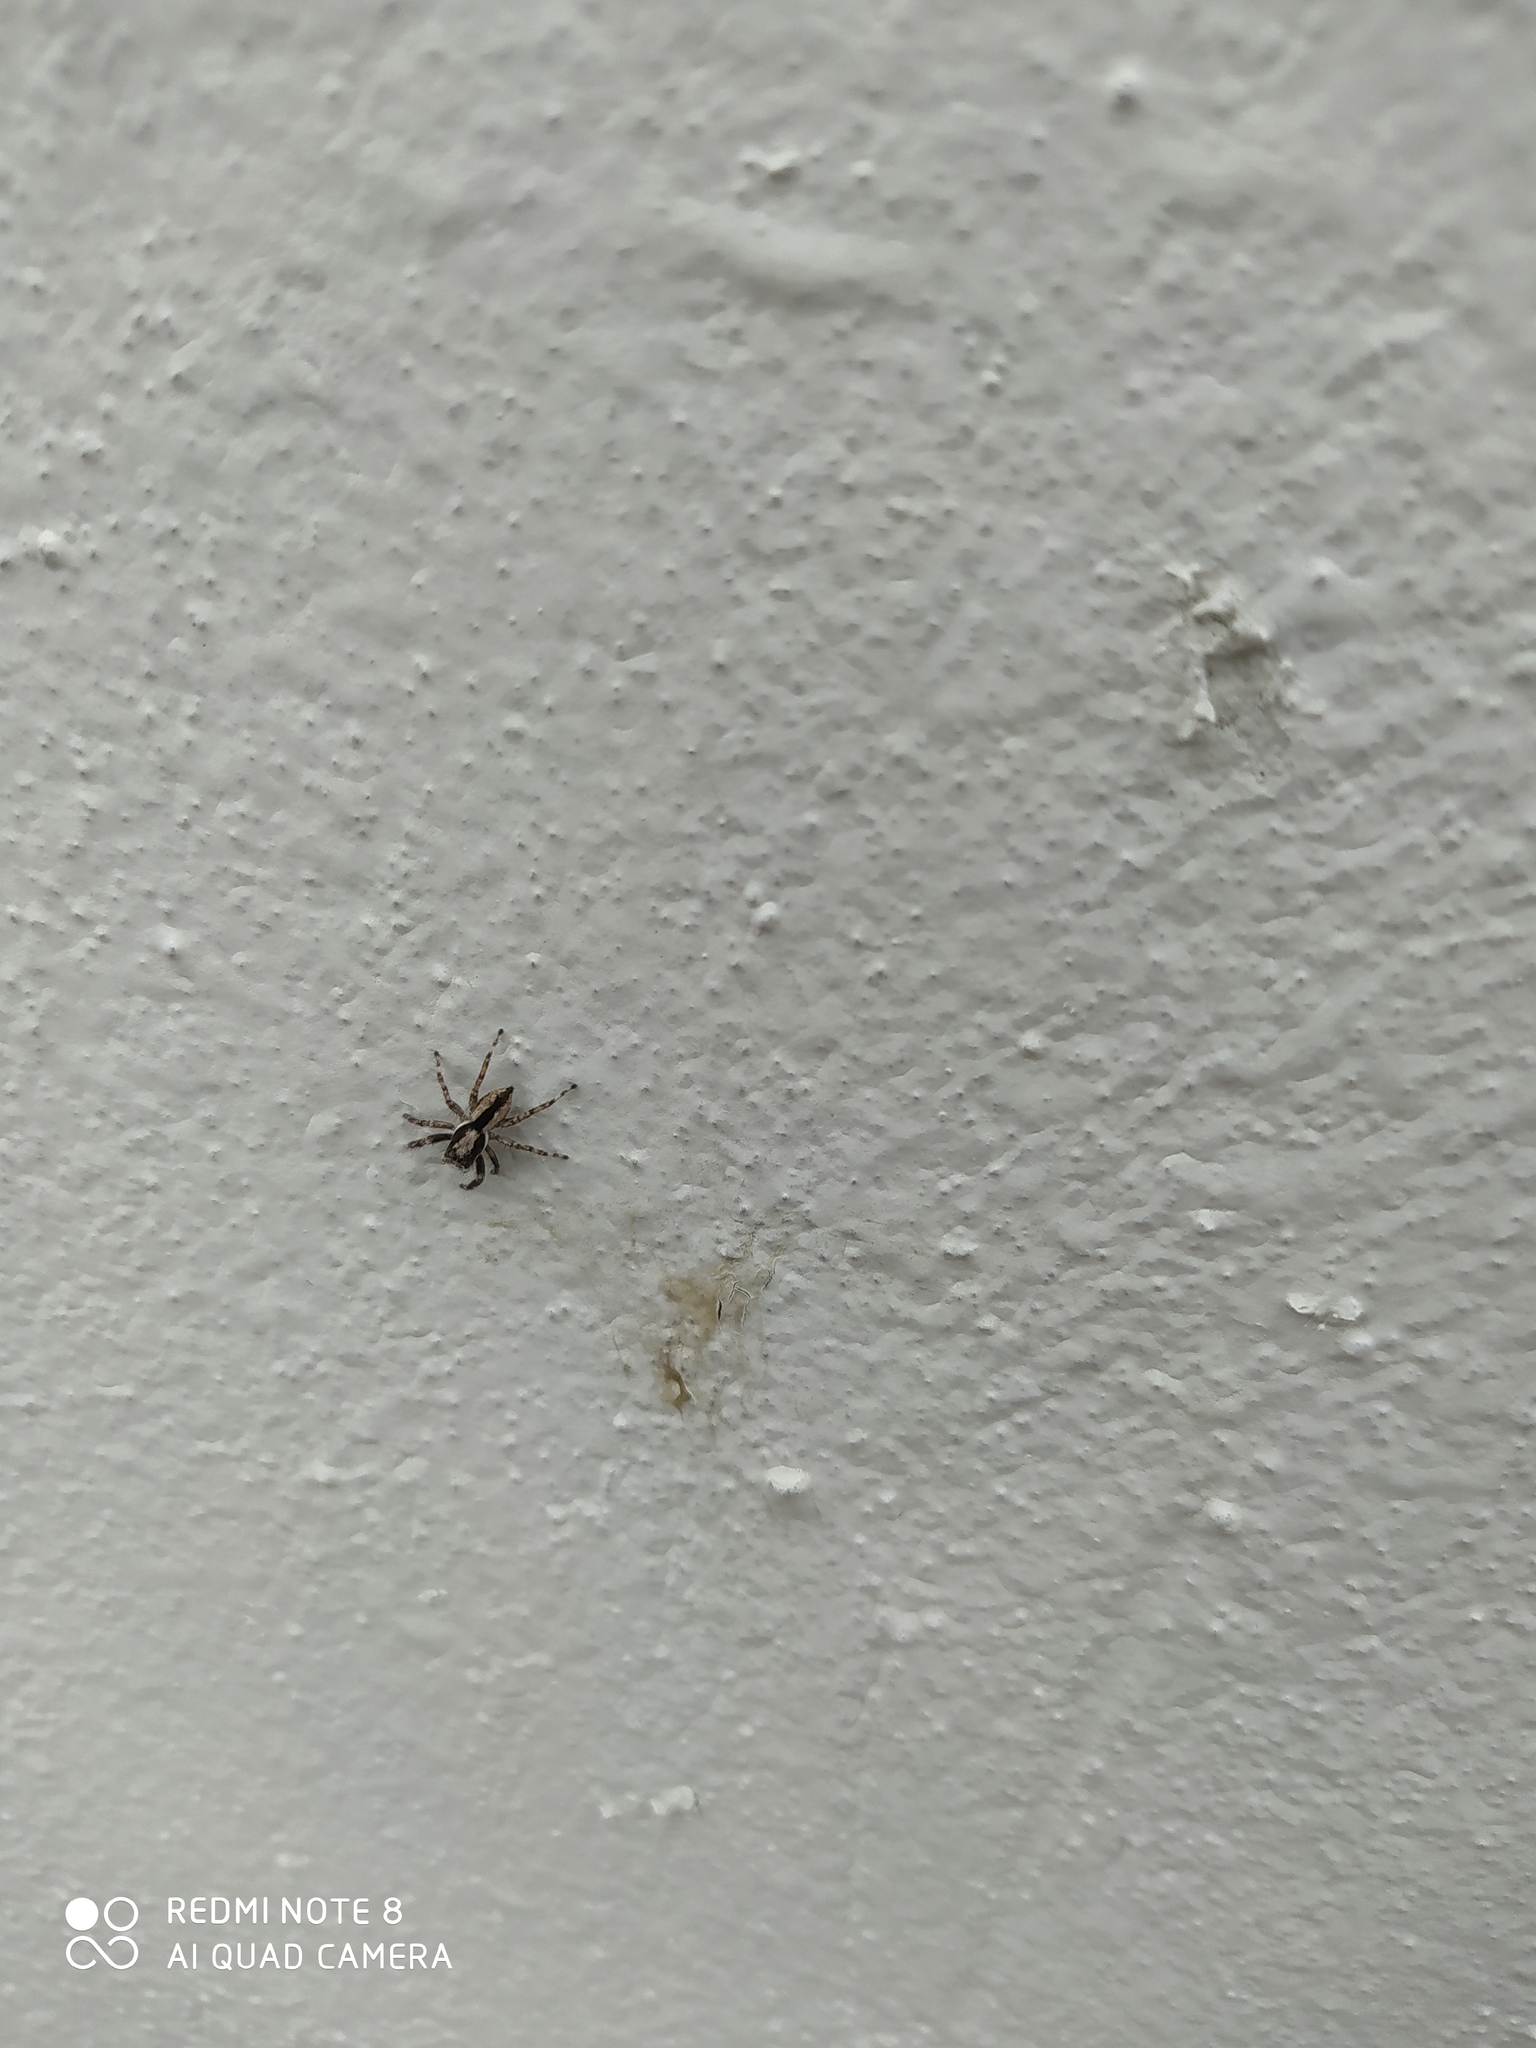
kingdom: Animalia
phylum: Arthropoda
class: Arachnida
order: Araneae
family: Salticidae
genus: Menemerus
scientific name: Menemerus bivittatus
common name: Gray wall jumper
